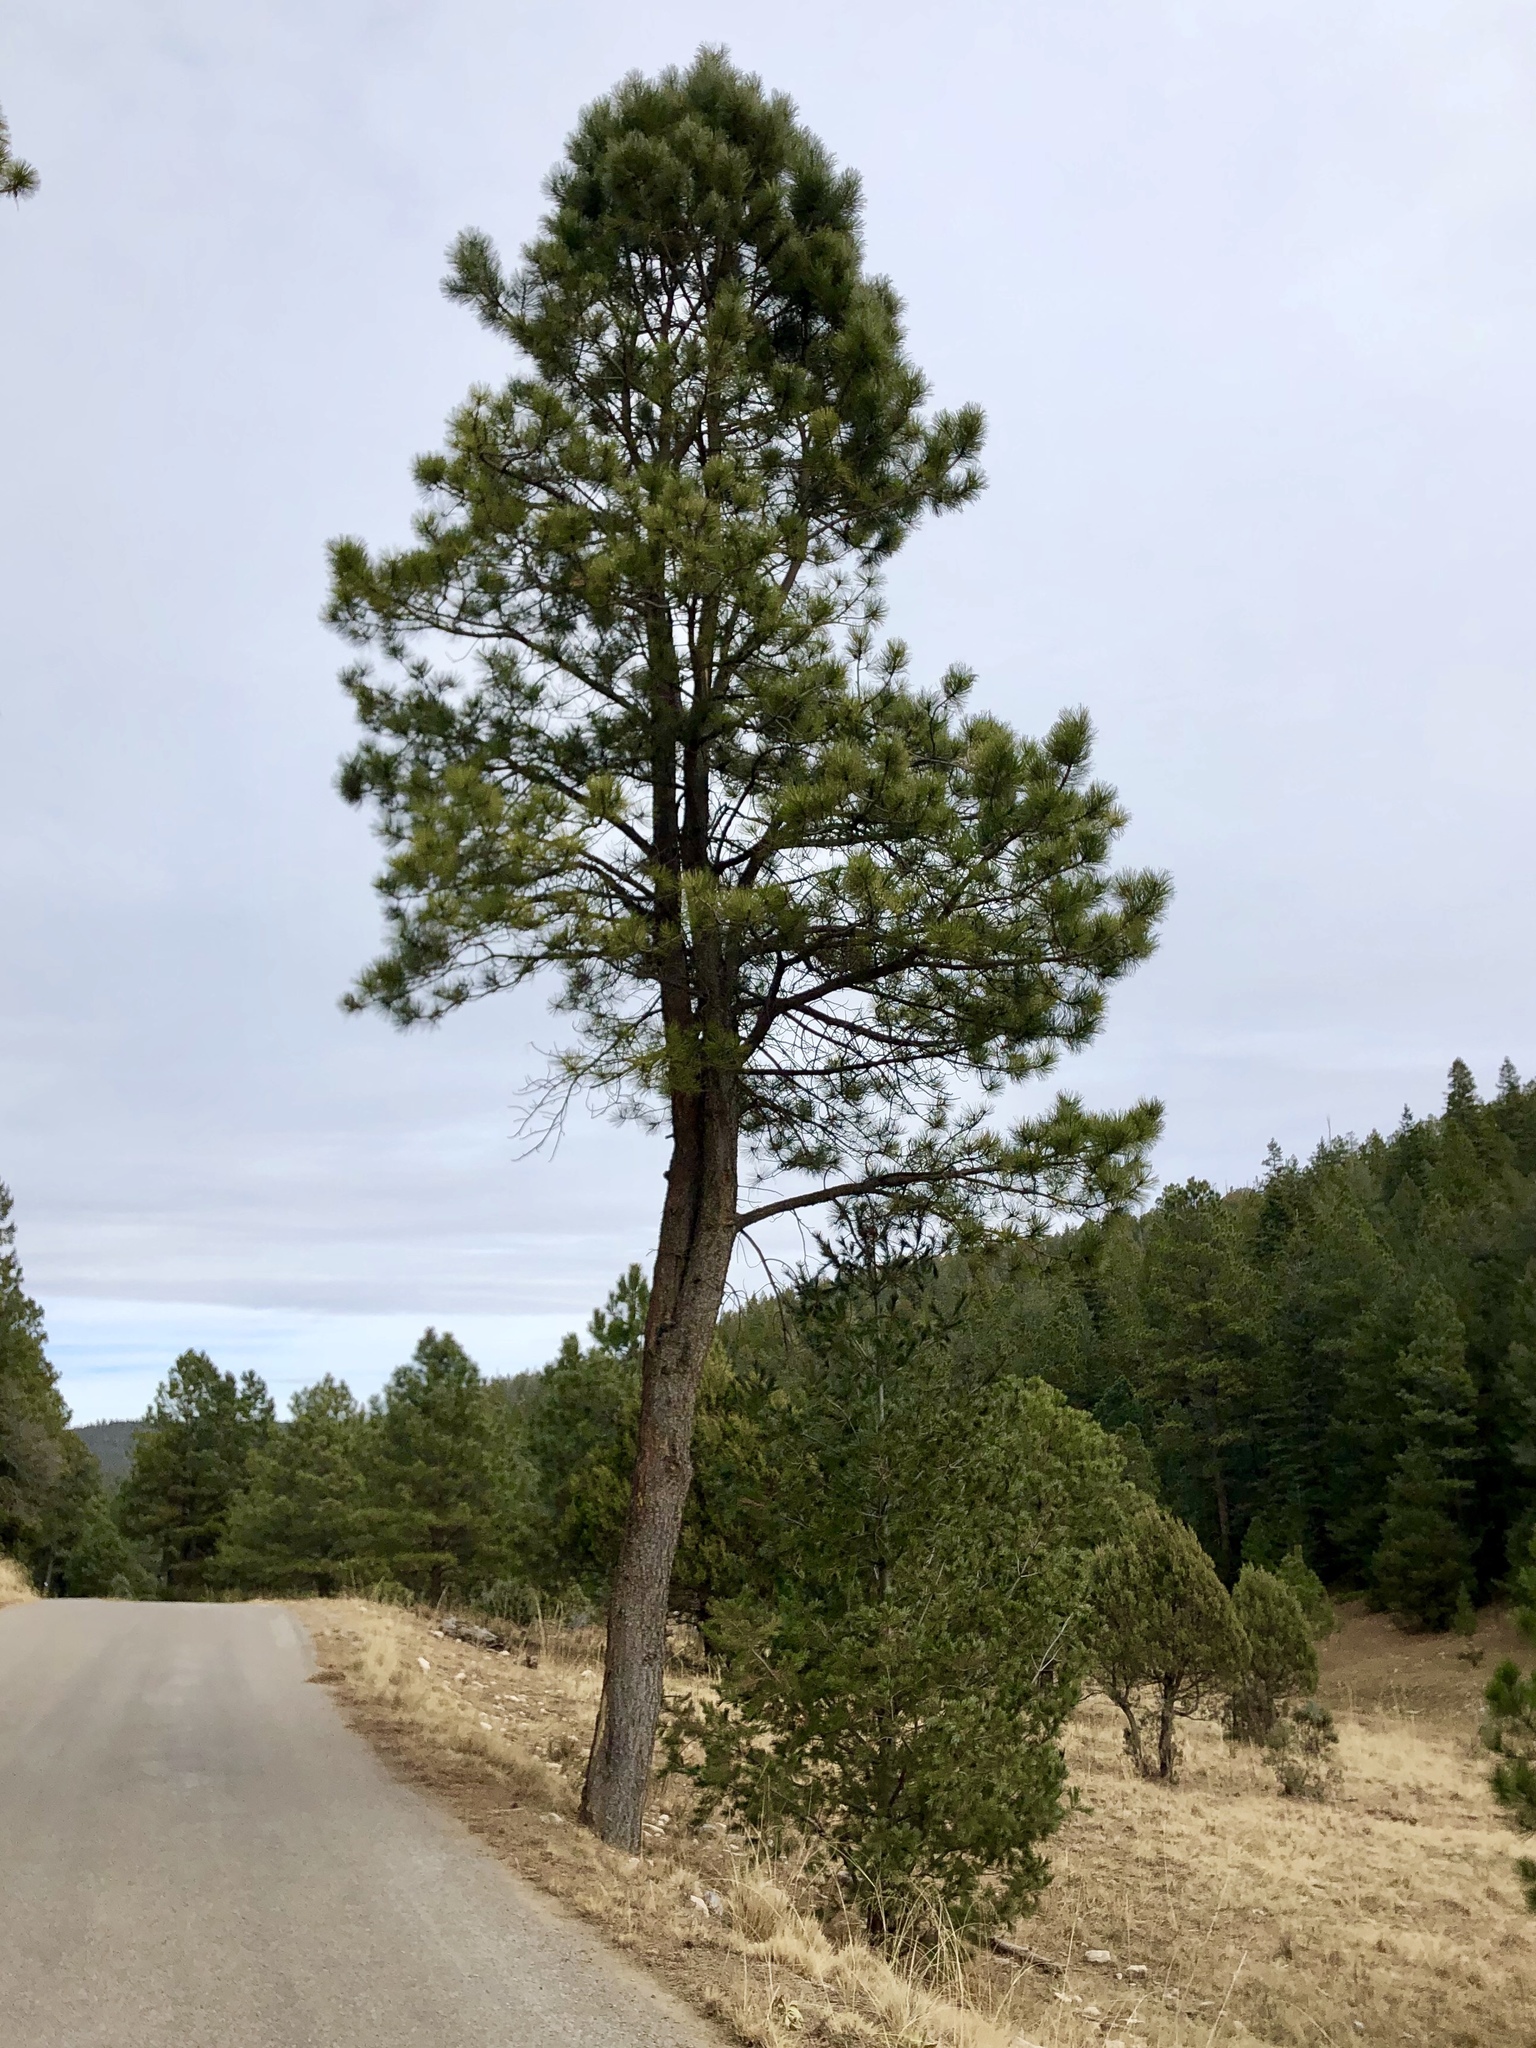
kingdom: Plantae
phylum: Tracheophyta
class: Pinopsida
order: Pinales
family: Pinaceae
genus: Pinus
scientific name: Pinus ponderosa
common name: Western yellow-pine
